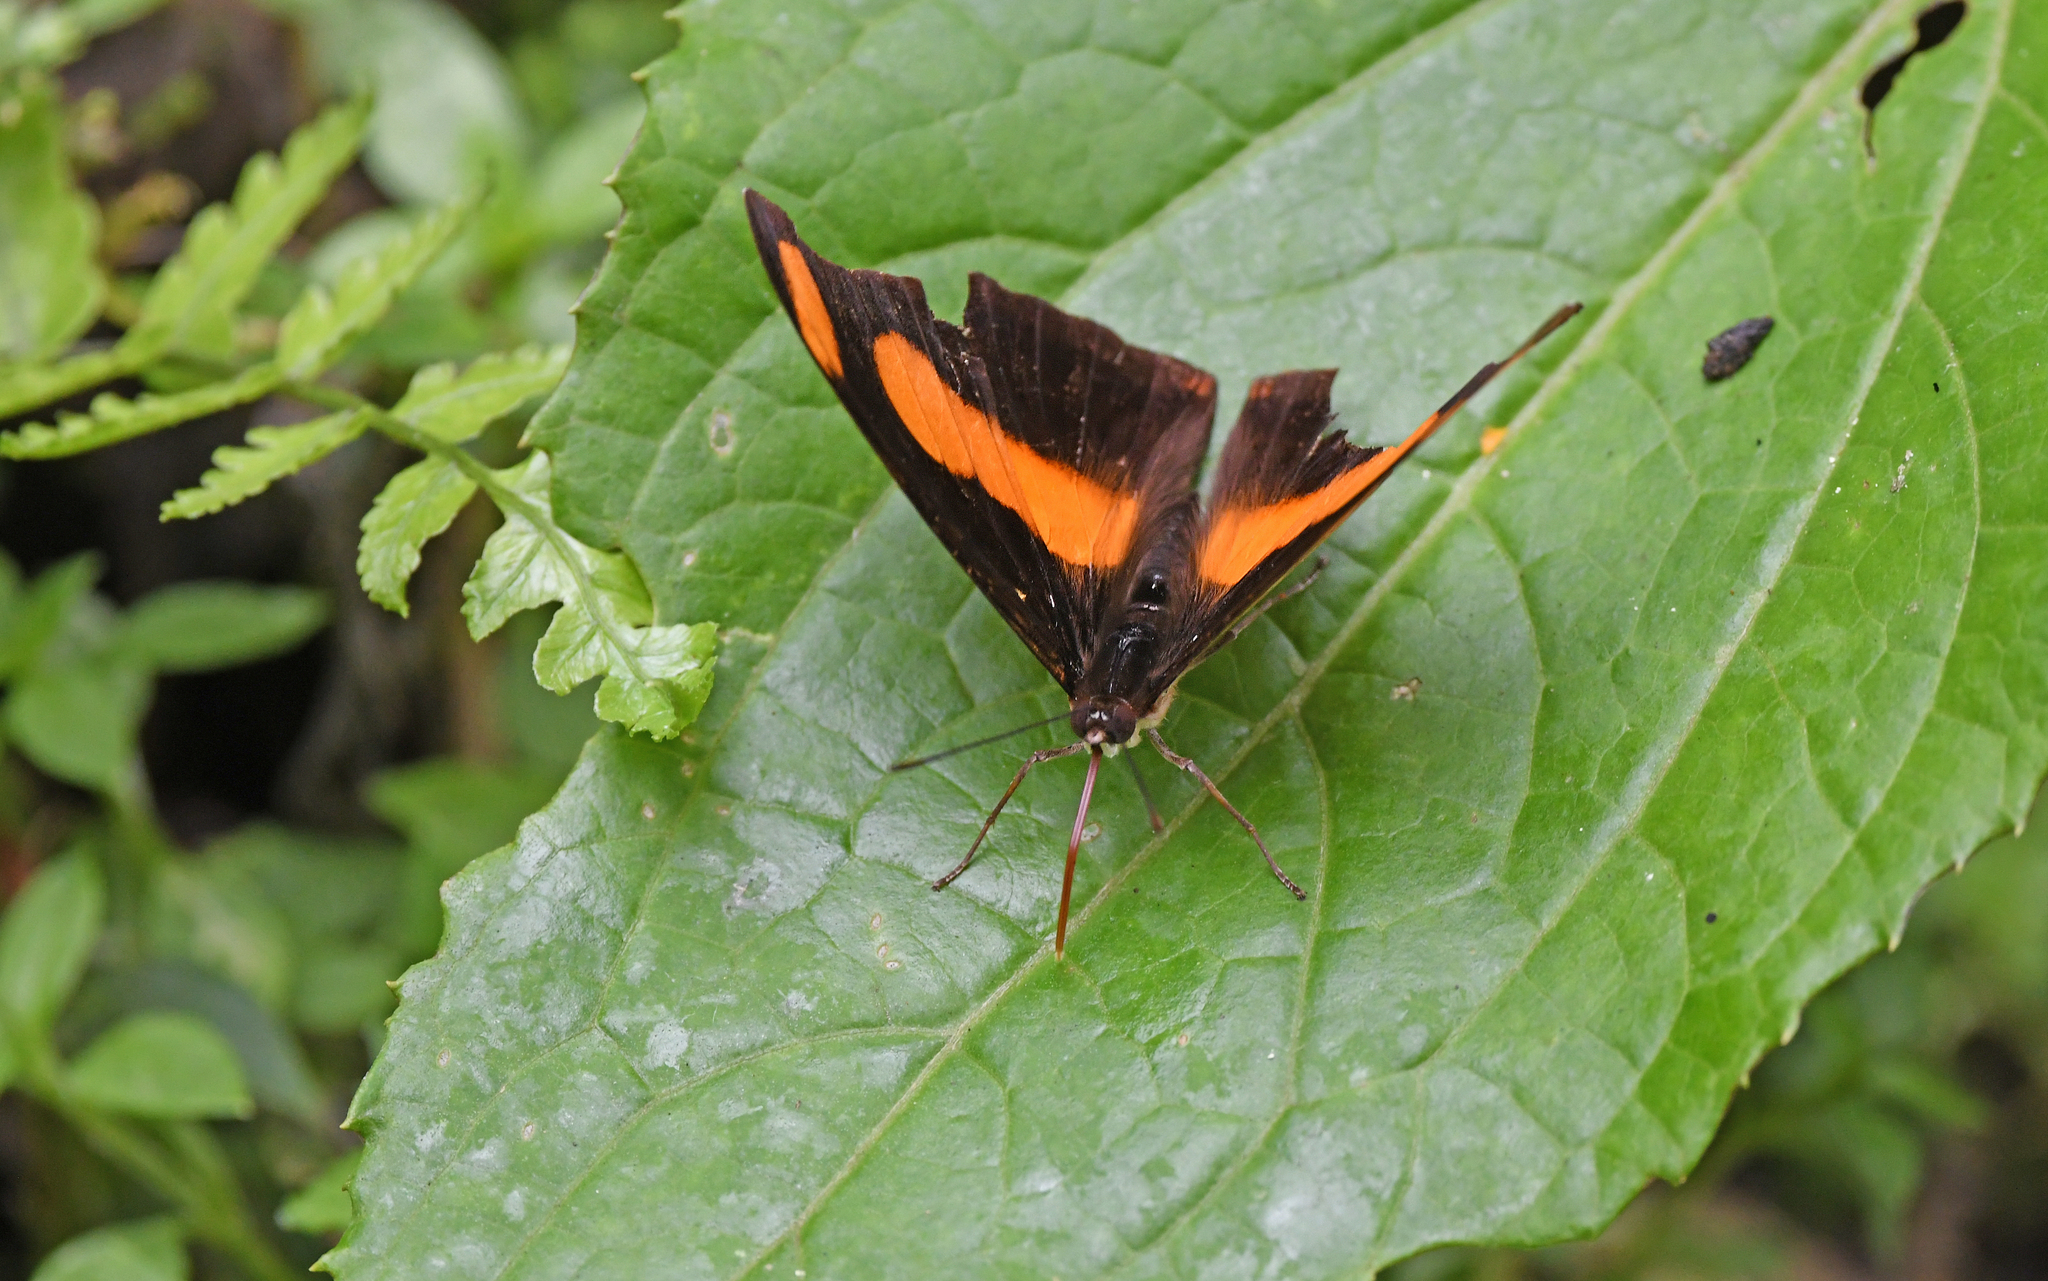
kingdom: Animalia
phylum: Arthropoda
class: Insecta
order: Lepidoptera
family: Nymphalidae
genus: Catonephele
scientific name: Catonephele chromis
